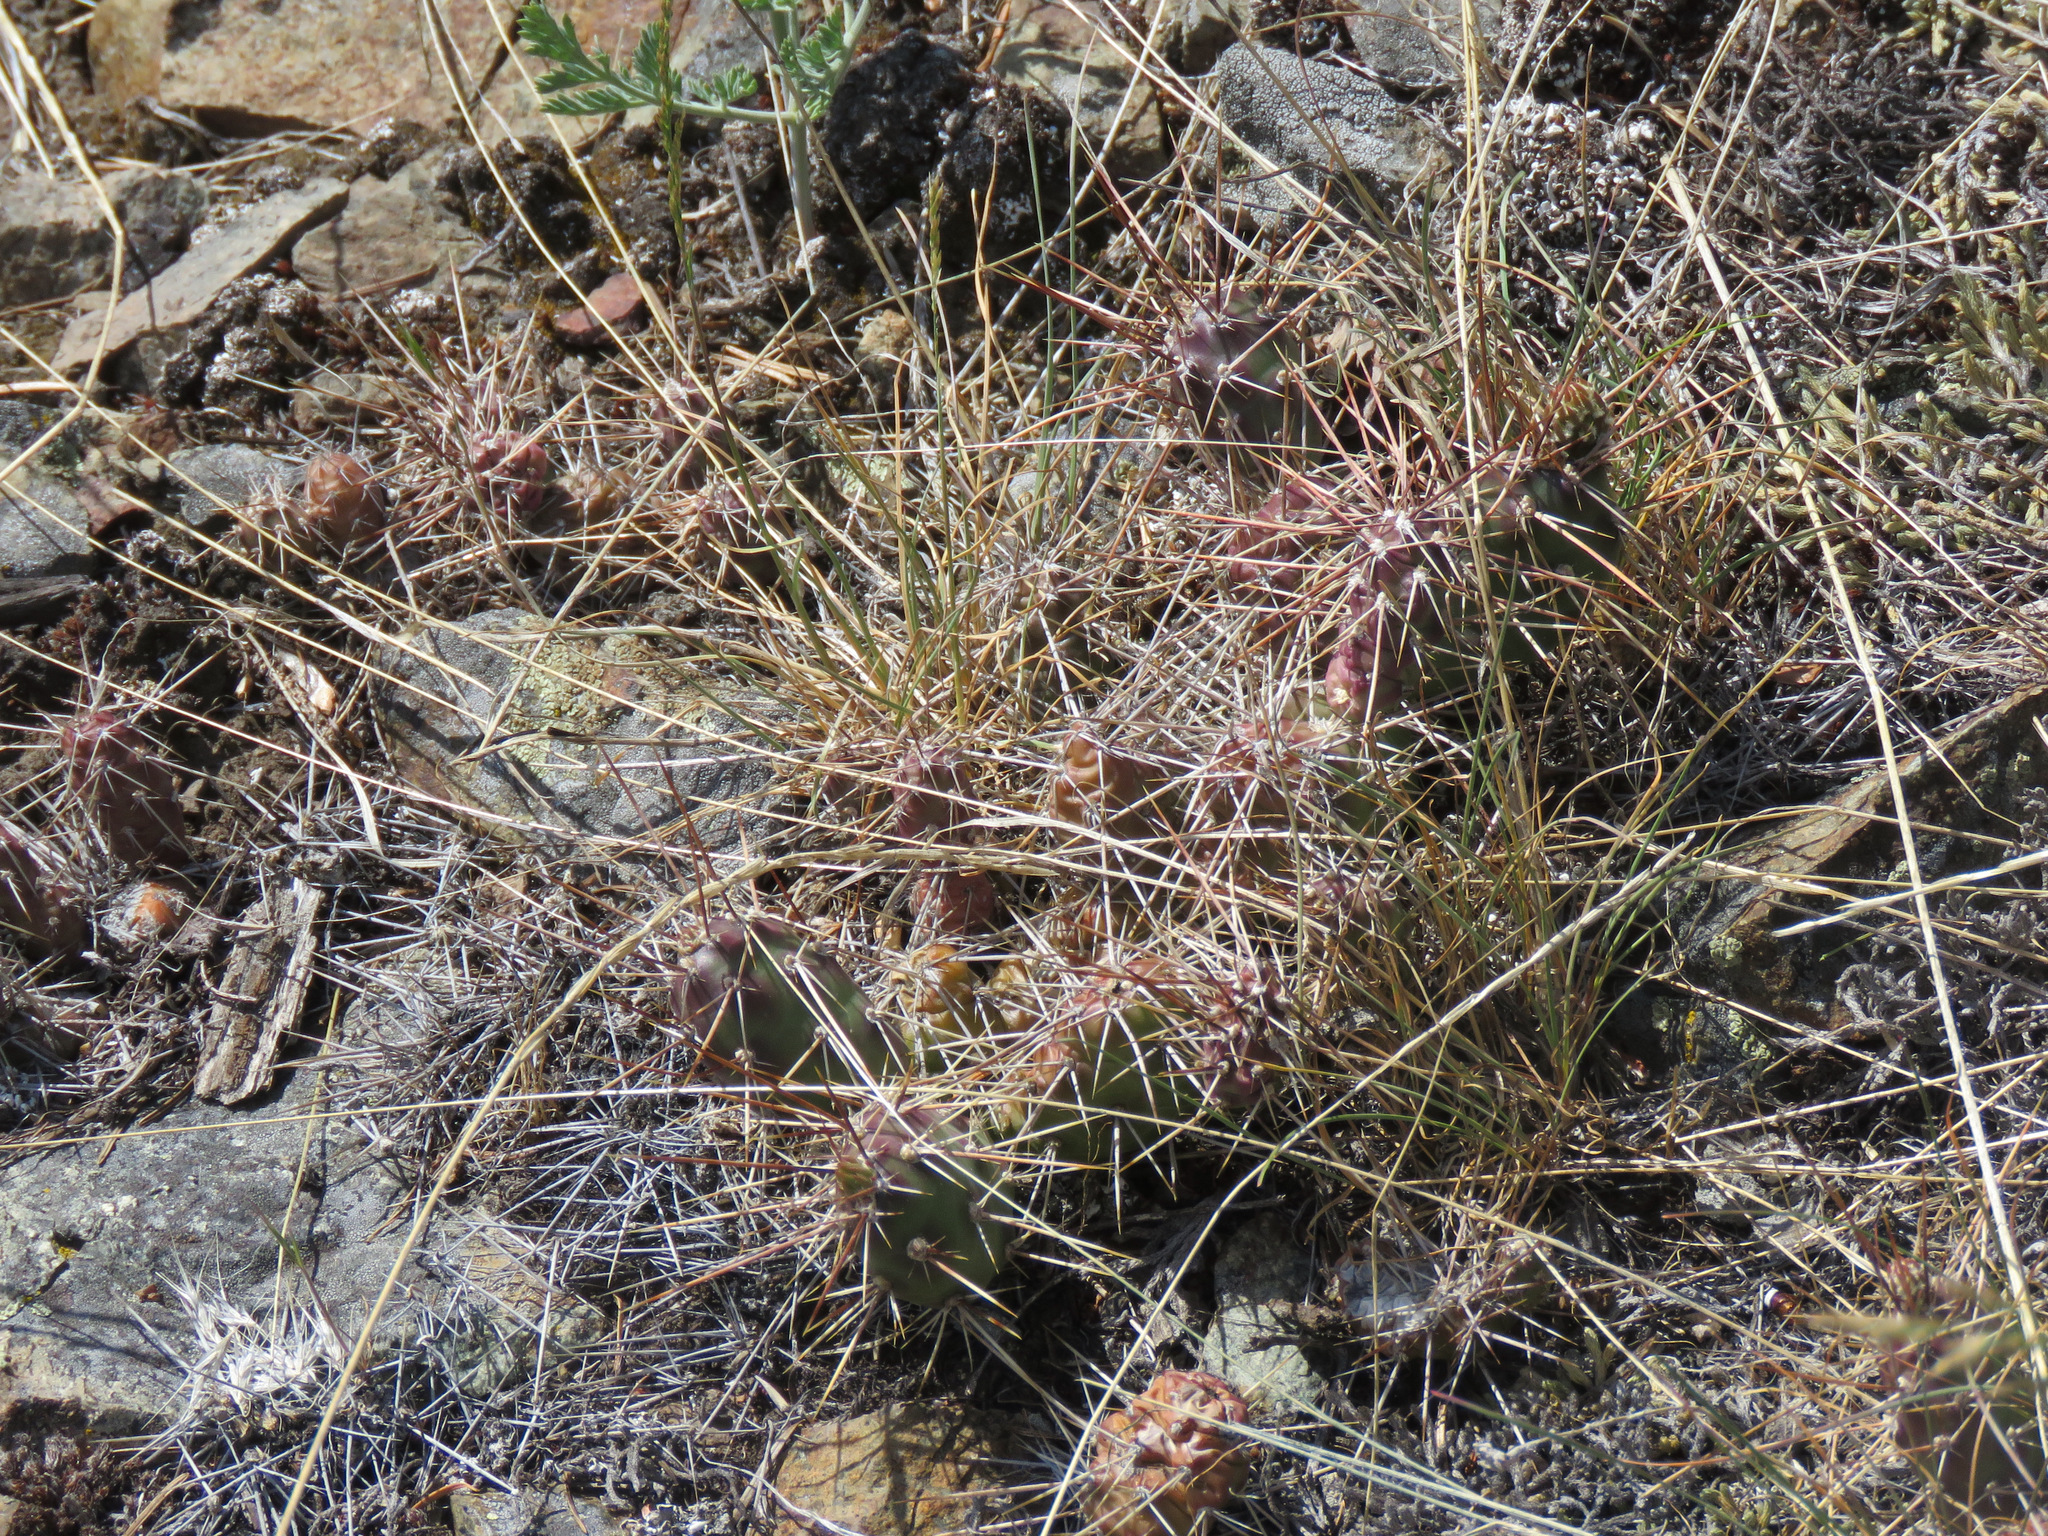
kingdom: Plantae
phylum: Tracheophyta
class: Magnoliopsida
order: Caryophyllales
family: Cactaceae
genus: Opuntia
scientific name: Opuntia fragilis
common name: Brittle cactus
